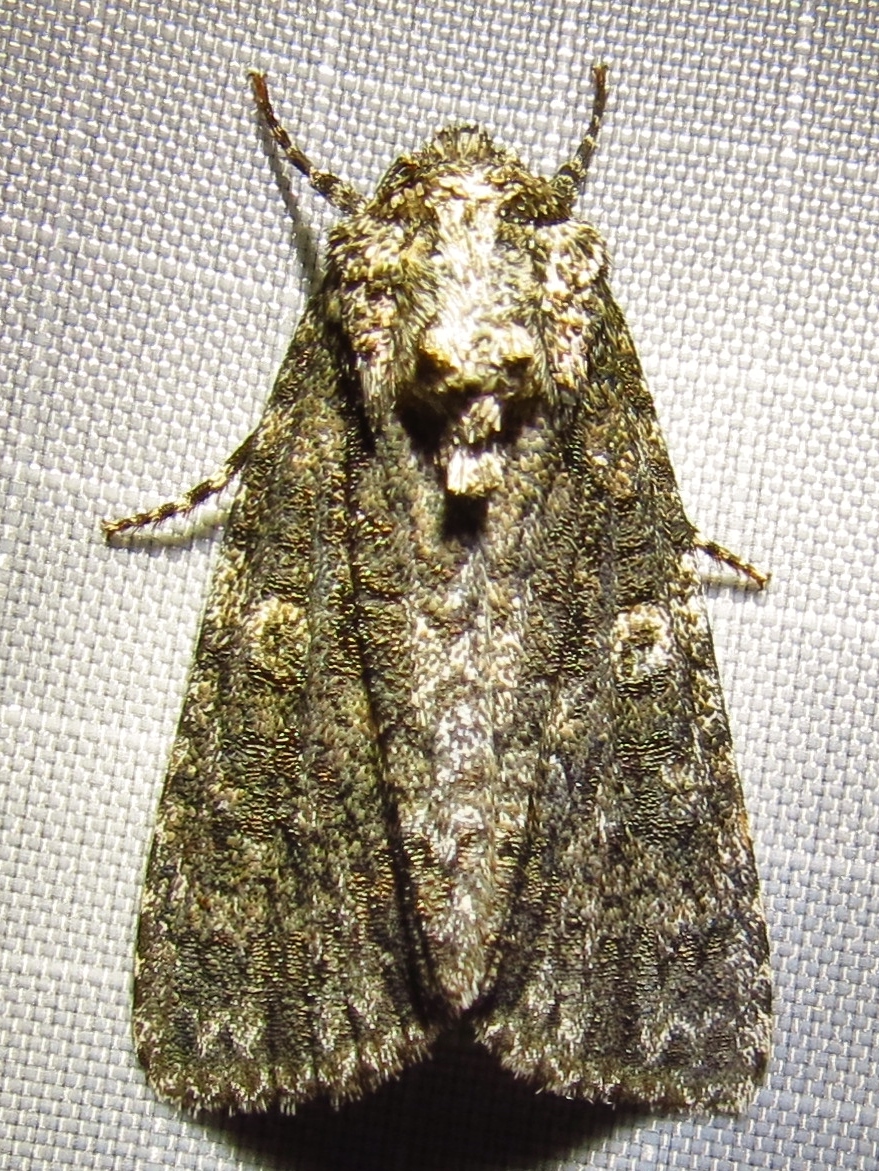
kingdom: Animalia
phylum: Arthropoda
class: Insecta
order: Lepidoptera
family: Noctuidae
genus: Acronicta
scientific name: Acronicta afflicta
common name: Afflicted dagger moth
